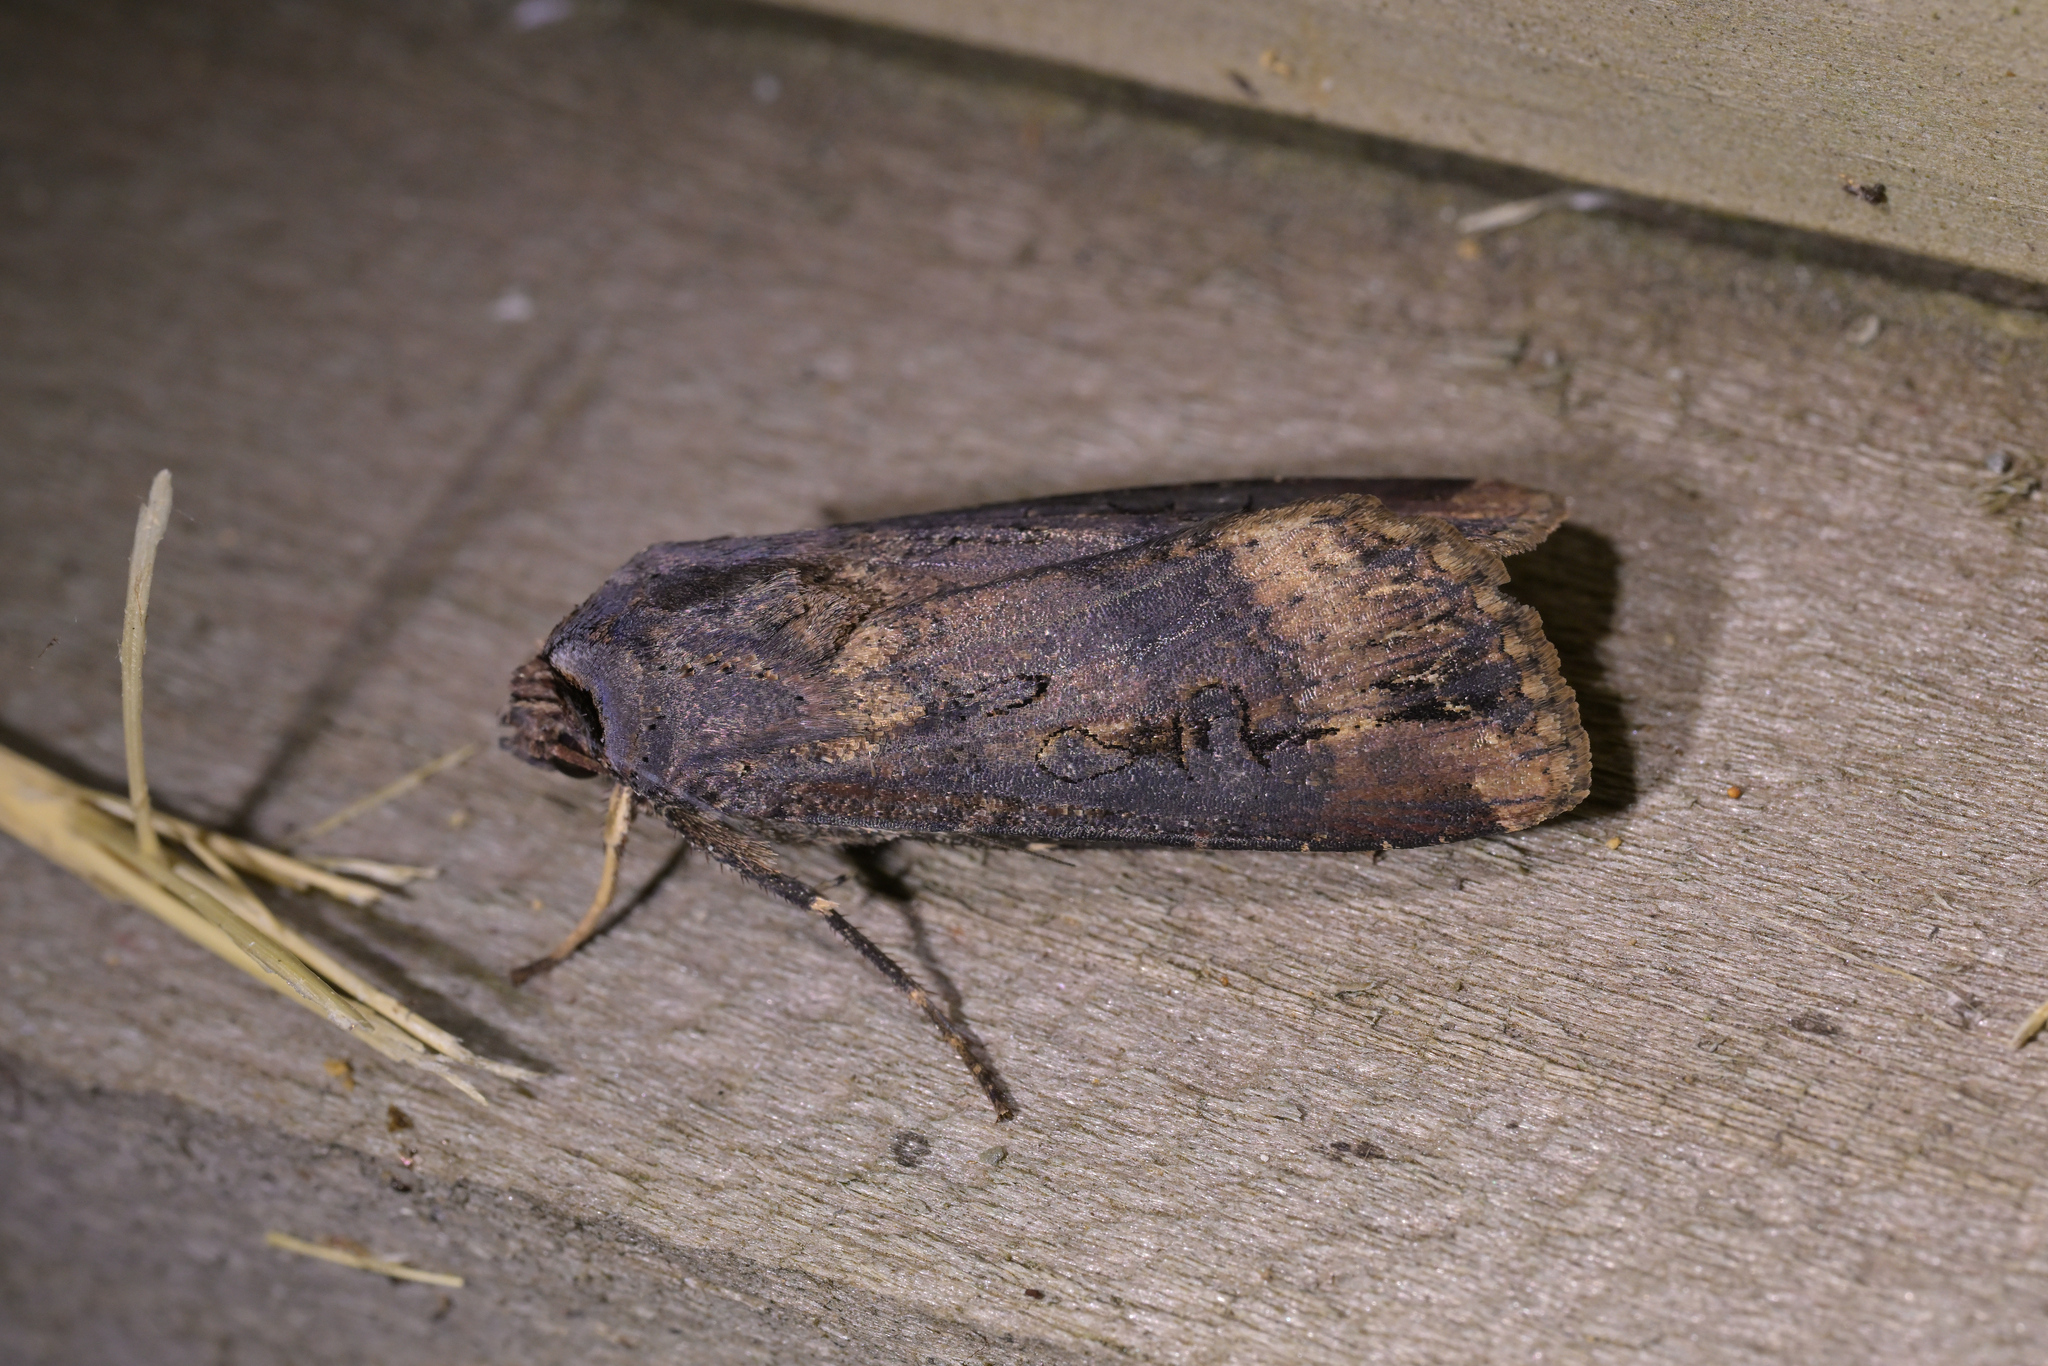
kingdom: Animalia
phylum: Arthropoda
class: Insecta
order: Lepidoptera
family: Noctuidae
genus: Agrotis
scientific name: Agrotis ipsilon
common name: Dark sword-grass
